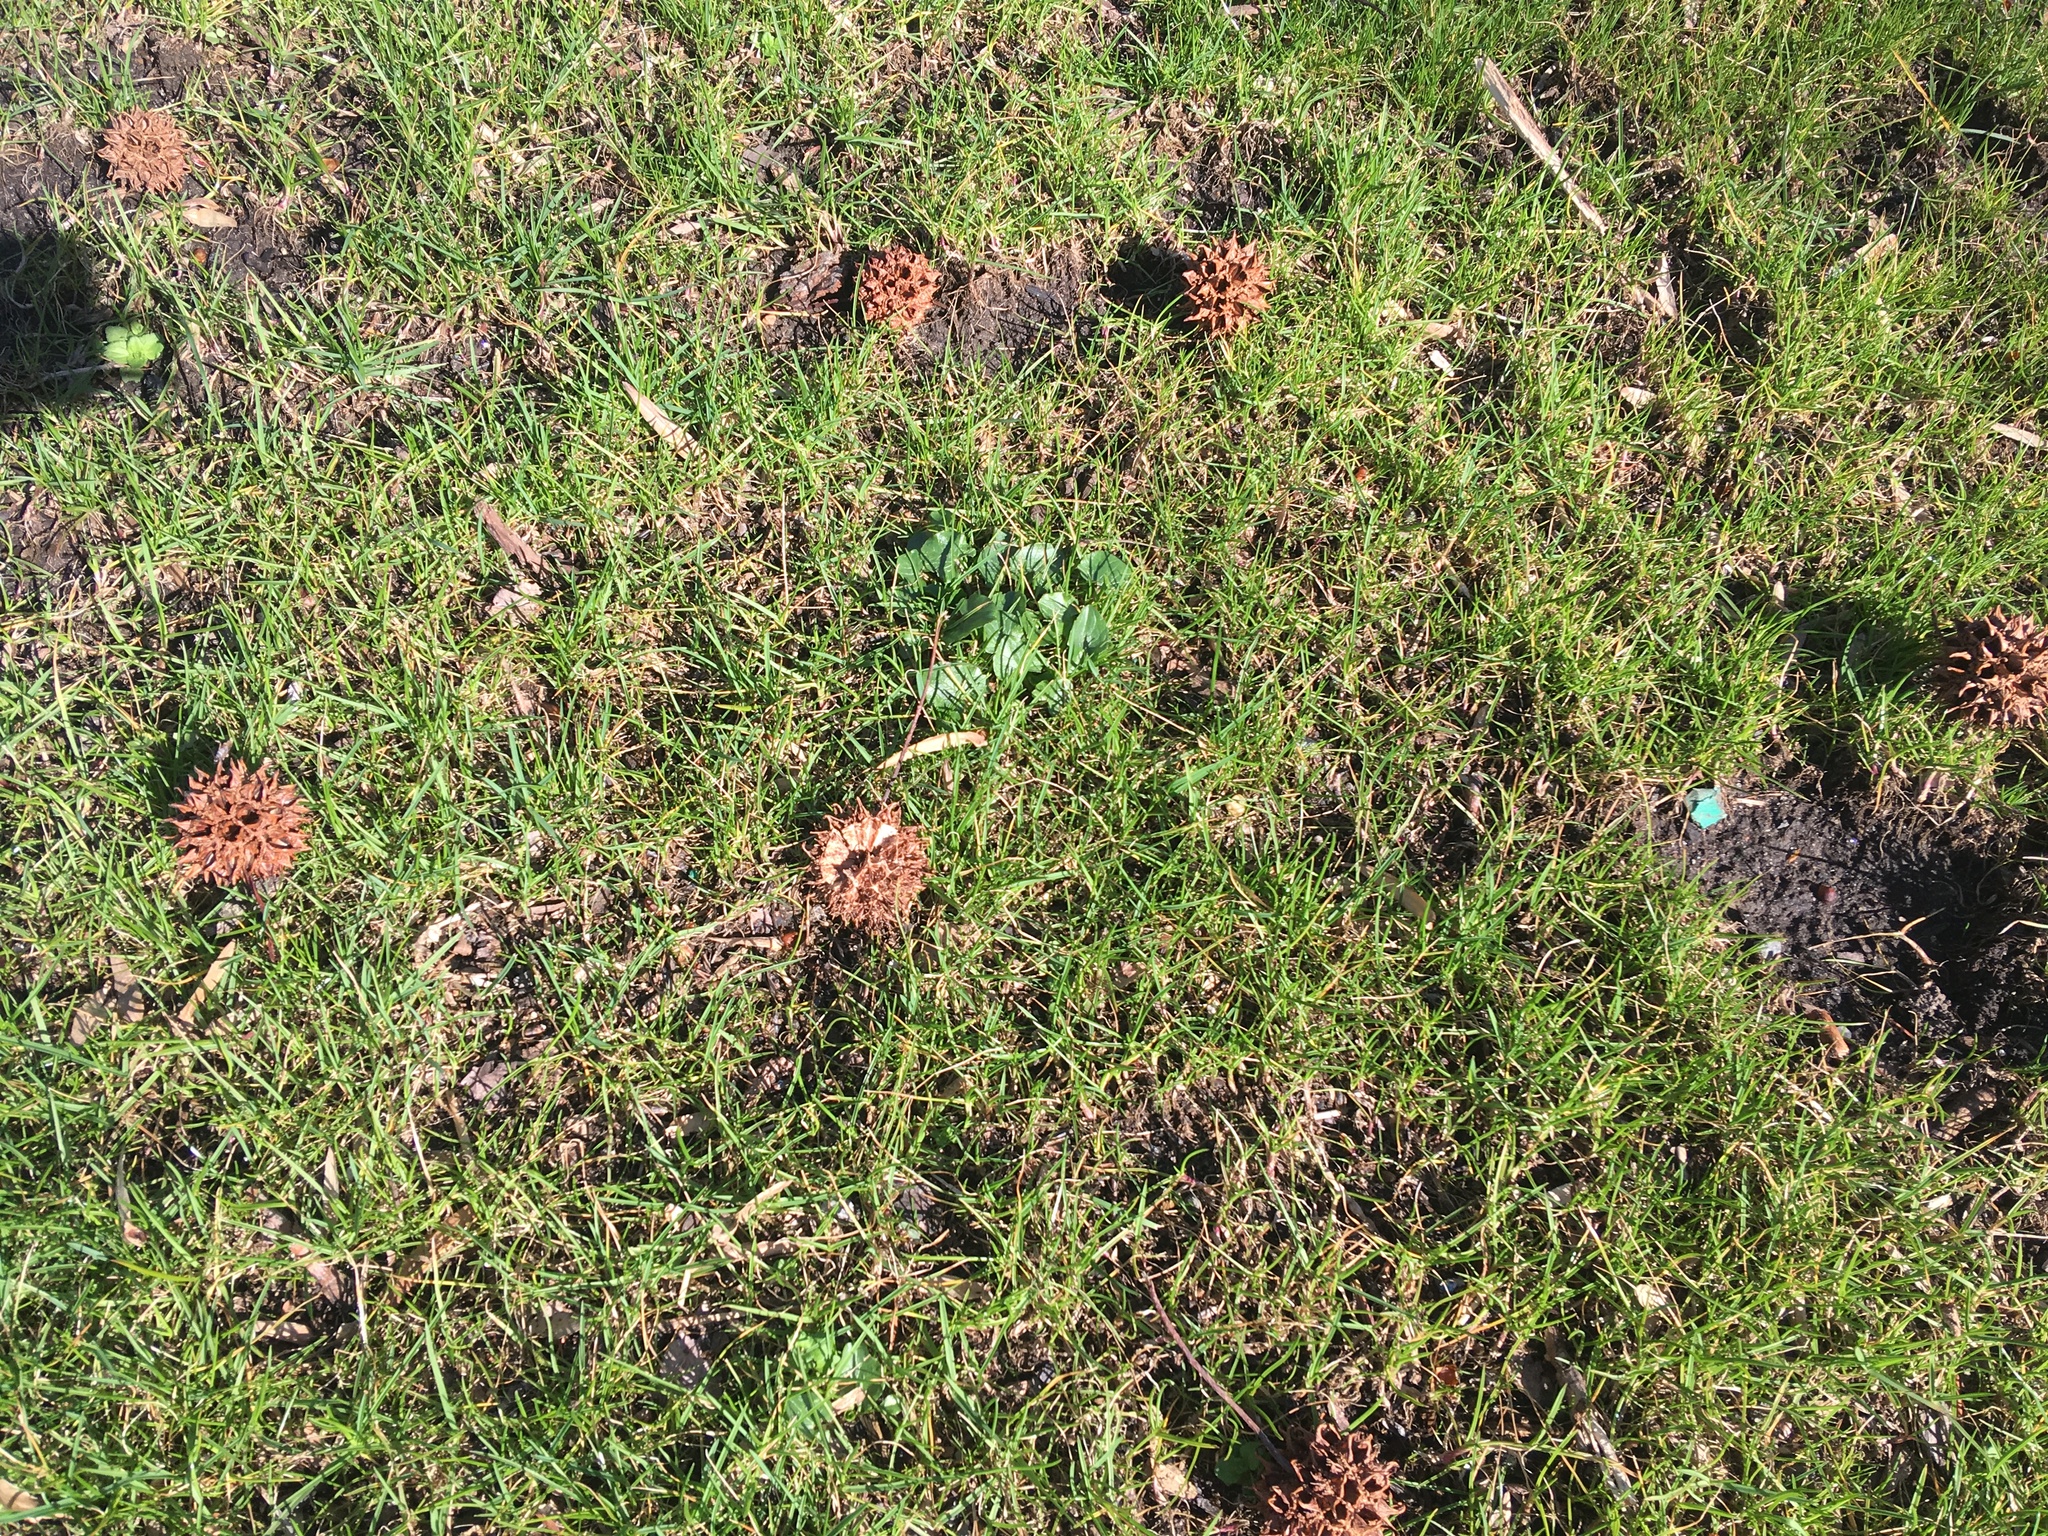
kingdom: Plantae
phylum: Tracheophyta
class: Magnoliopsida
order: Ranunculales
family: Ranunculaceae
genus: Ficaria
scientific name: Ficaria verna
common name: Lesser celandine
